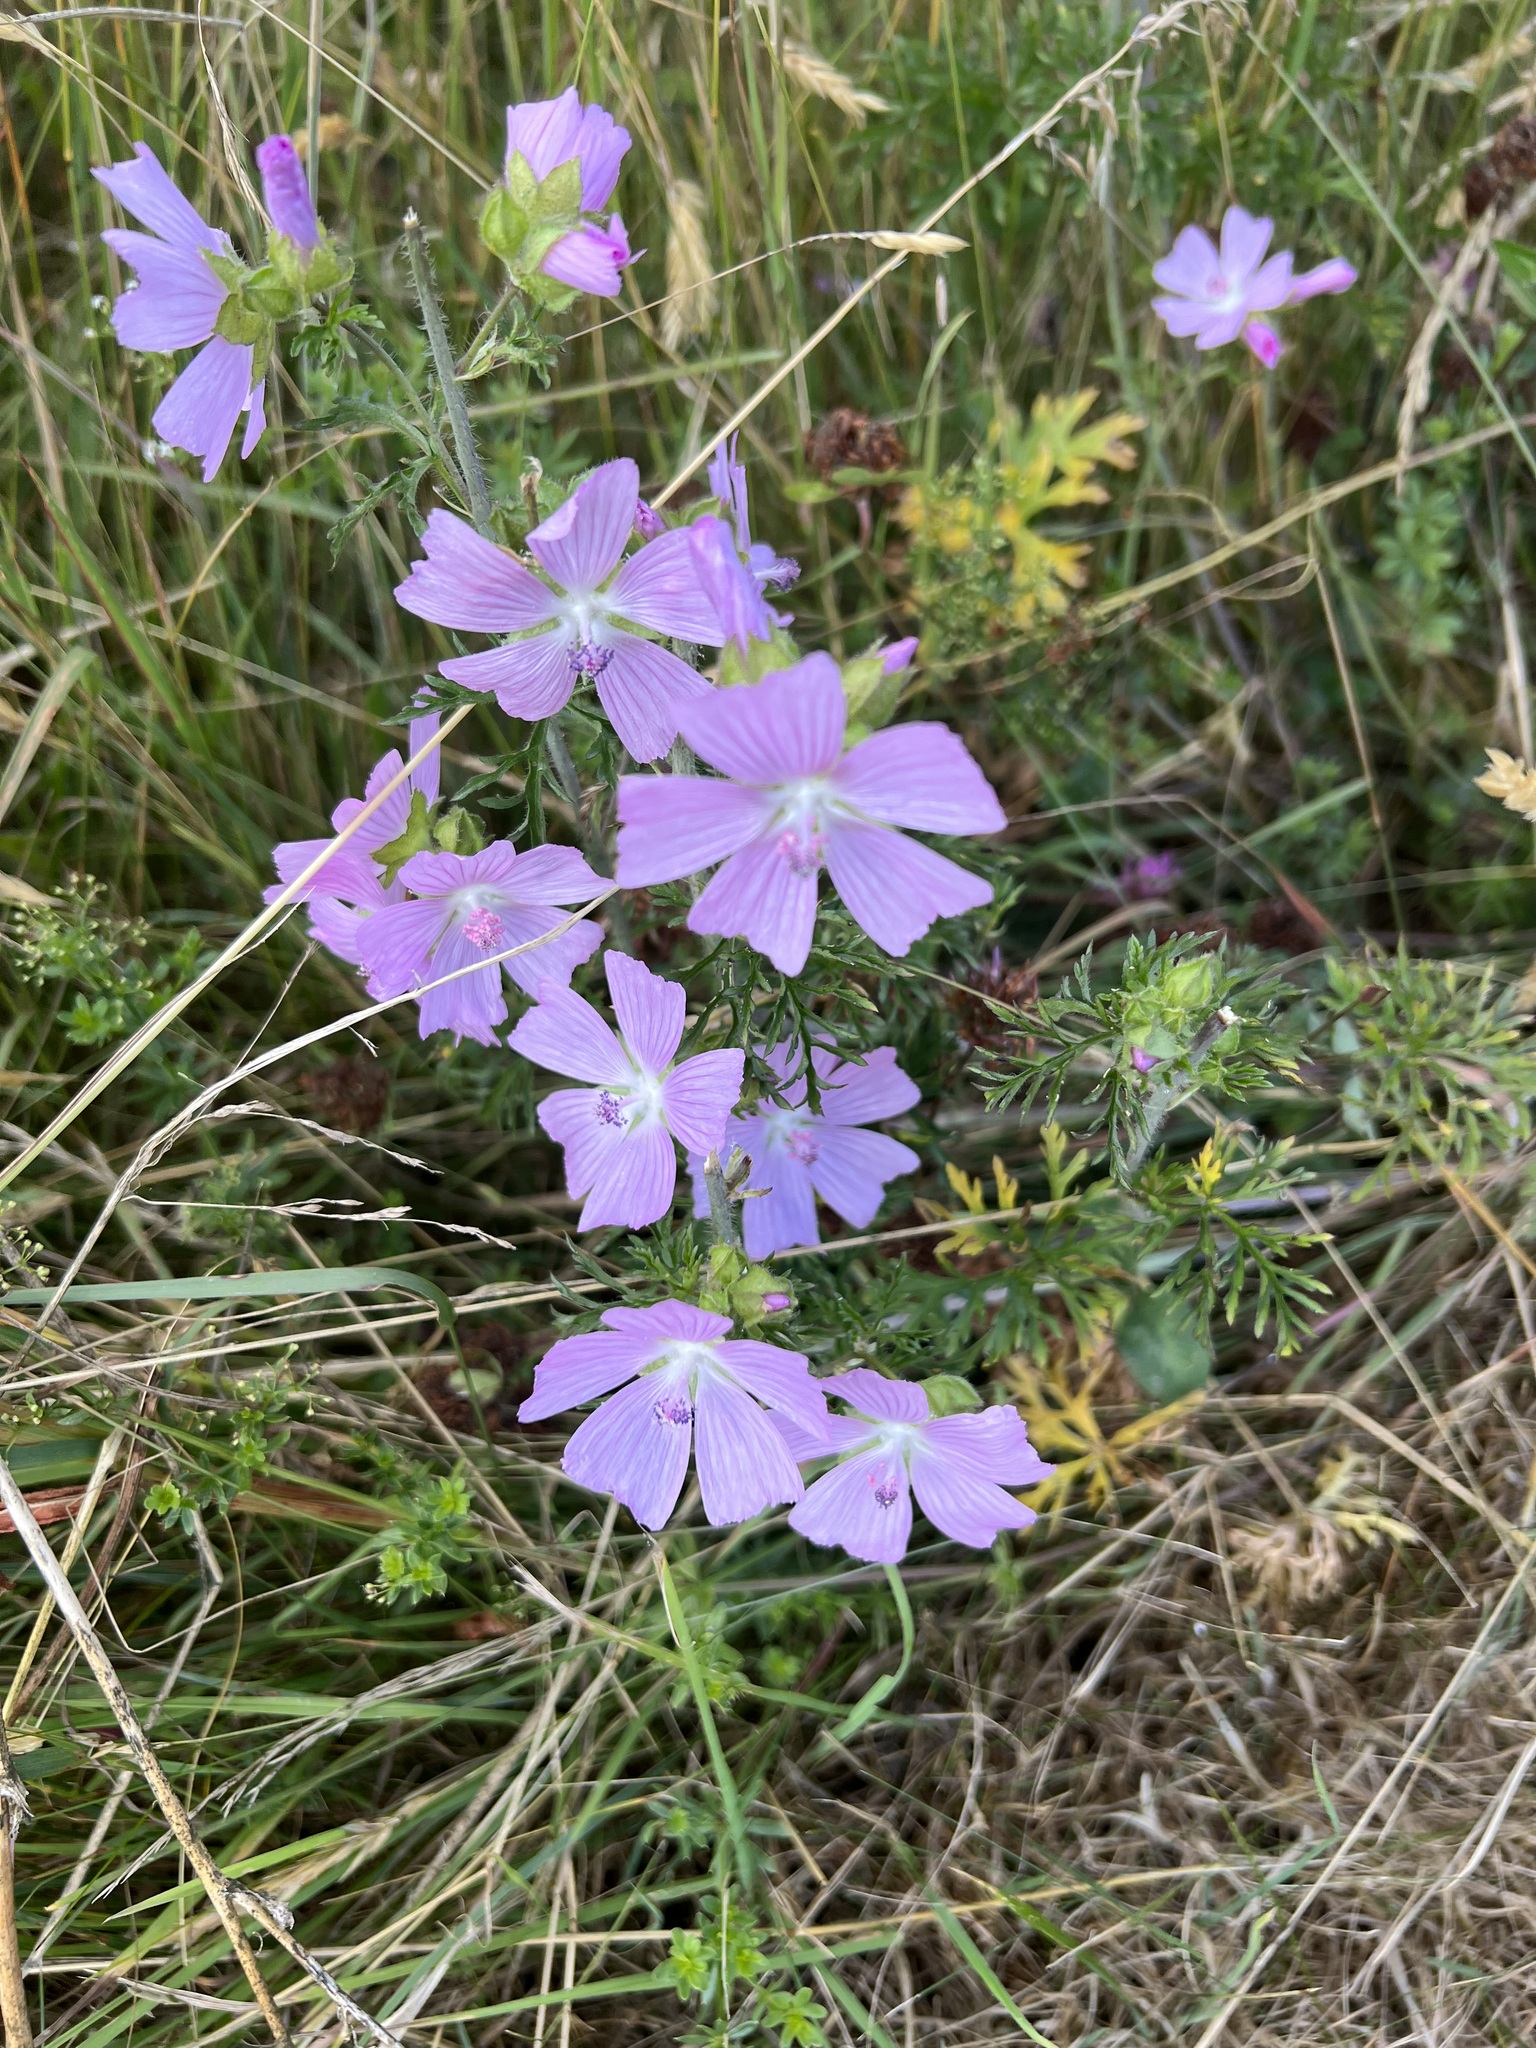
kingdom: Plantae
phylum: Tracheophyta
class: Magnoliopsida
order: Malvales
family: Malvaceae
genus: Malva
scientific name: Malva moschata
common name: Musk mallow
